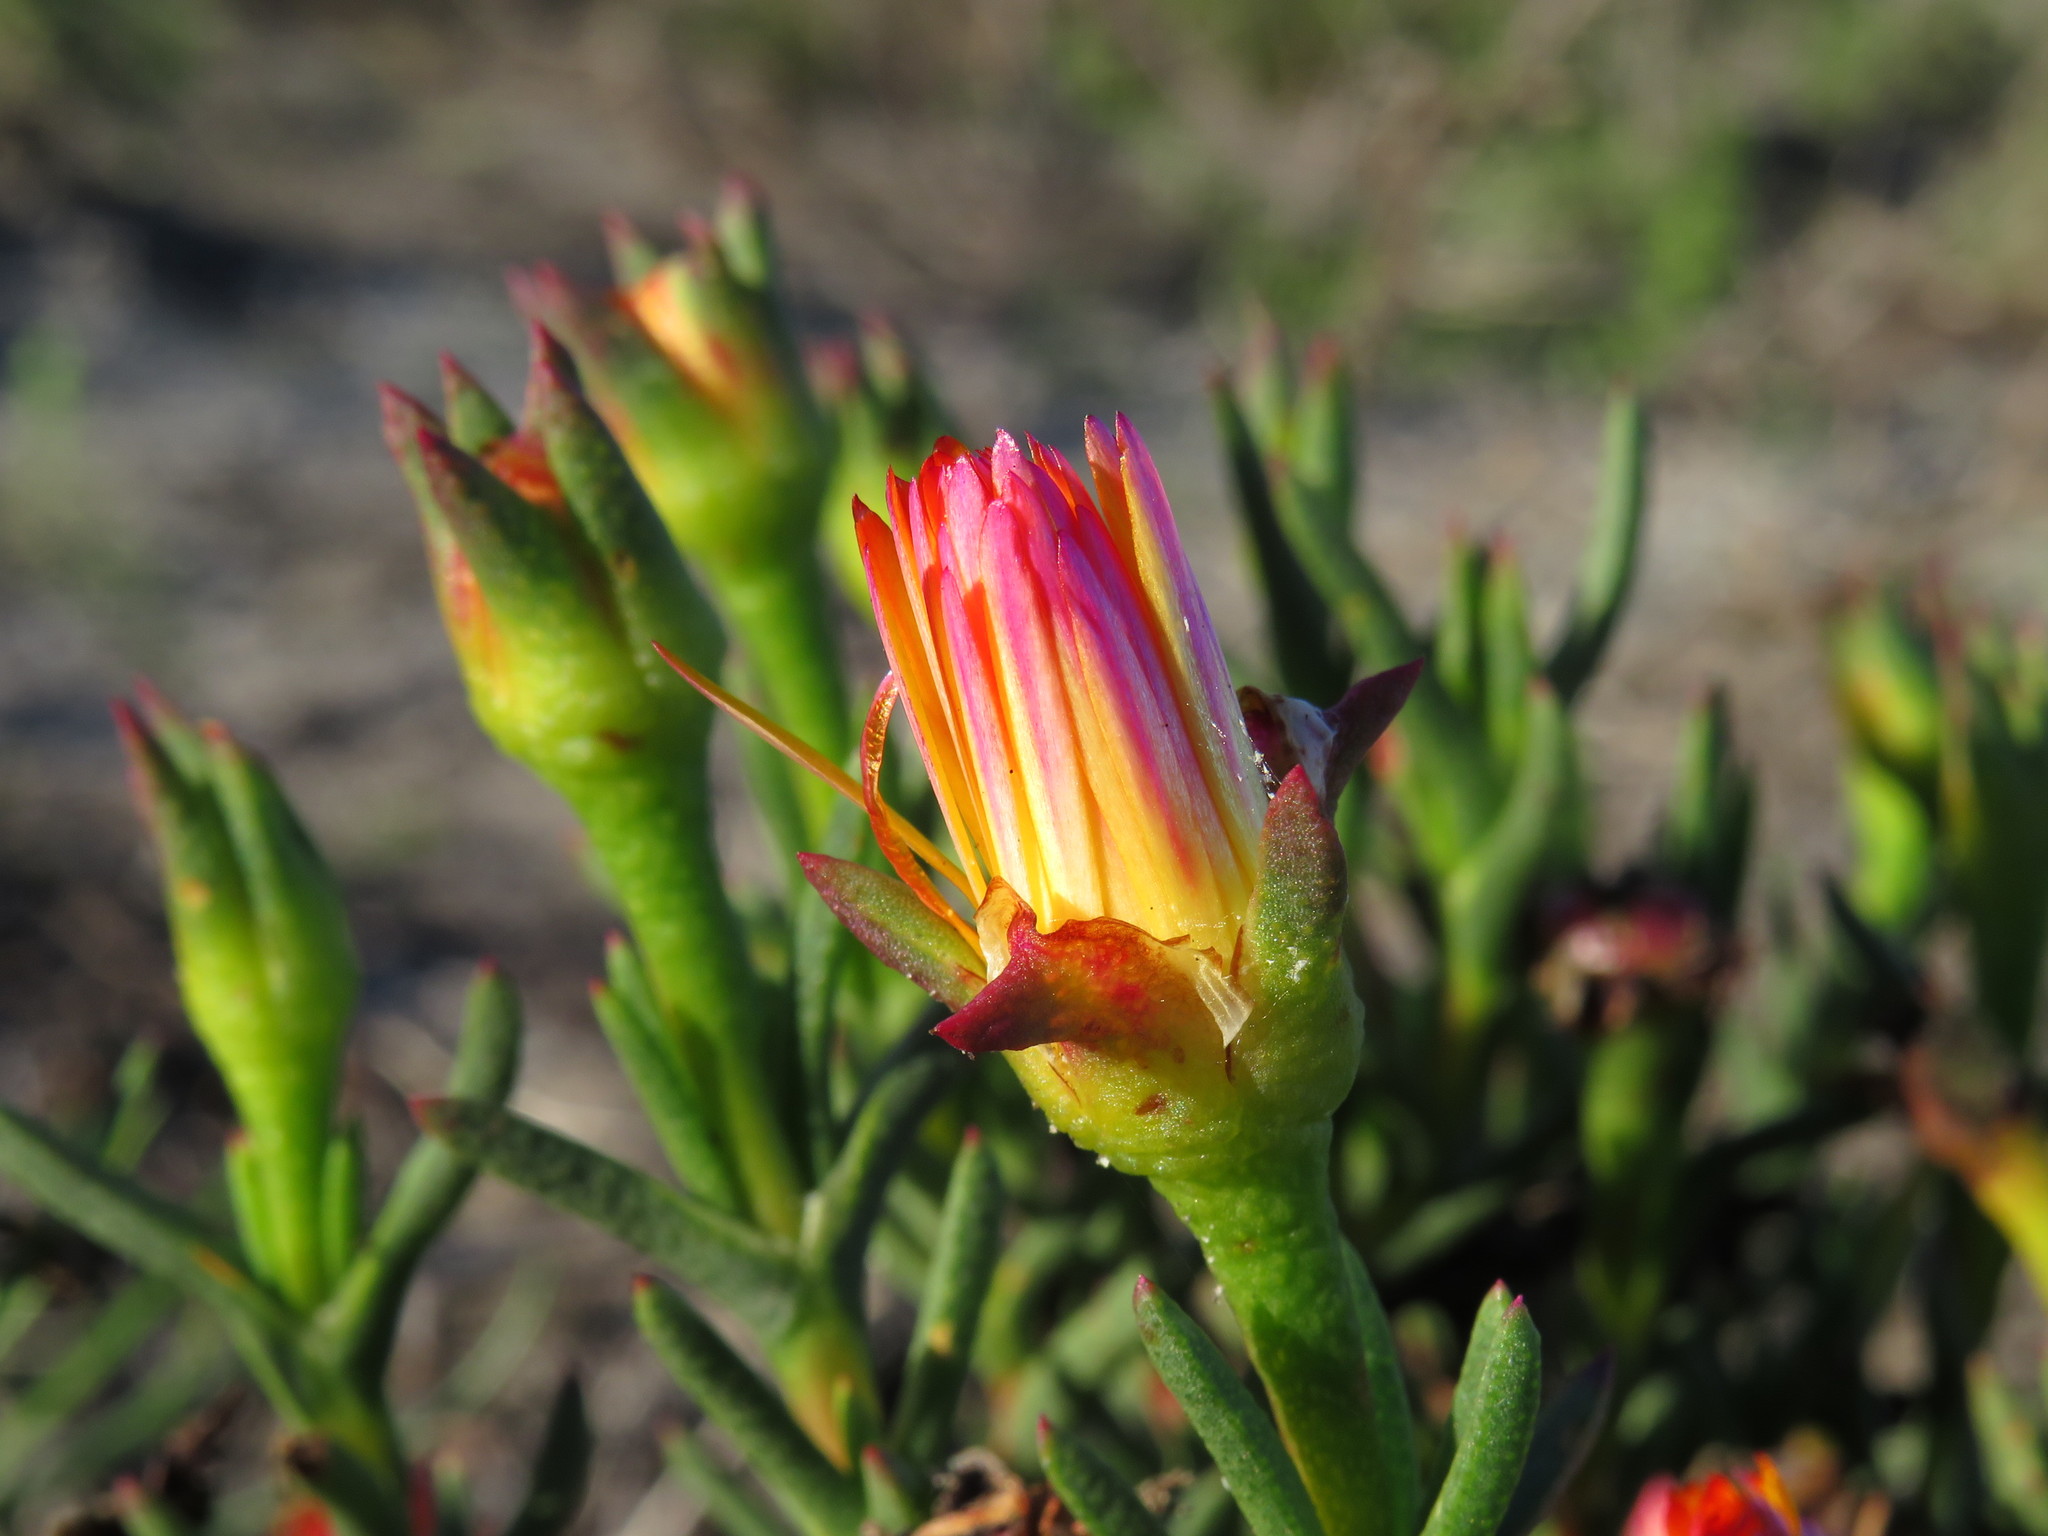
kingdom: Plantae
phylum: Tracheophyta
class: Magnoliopsida
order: Caryophyllales
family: Aizoaceae
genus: Lampranthus
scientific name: Lampranthus bicolor
